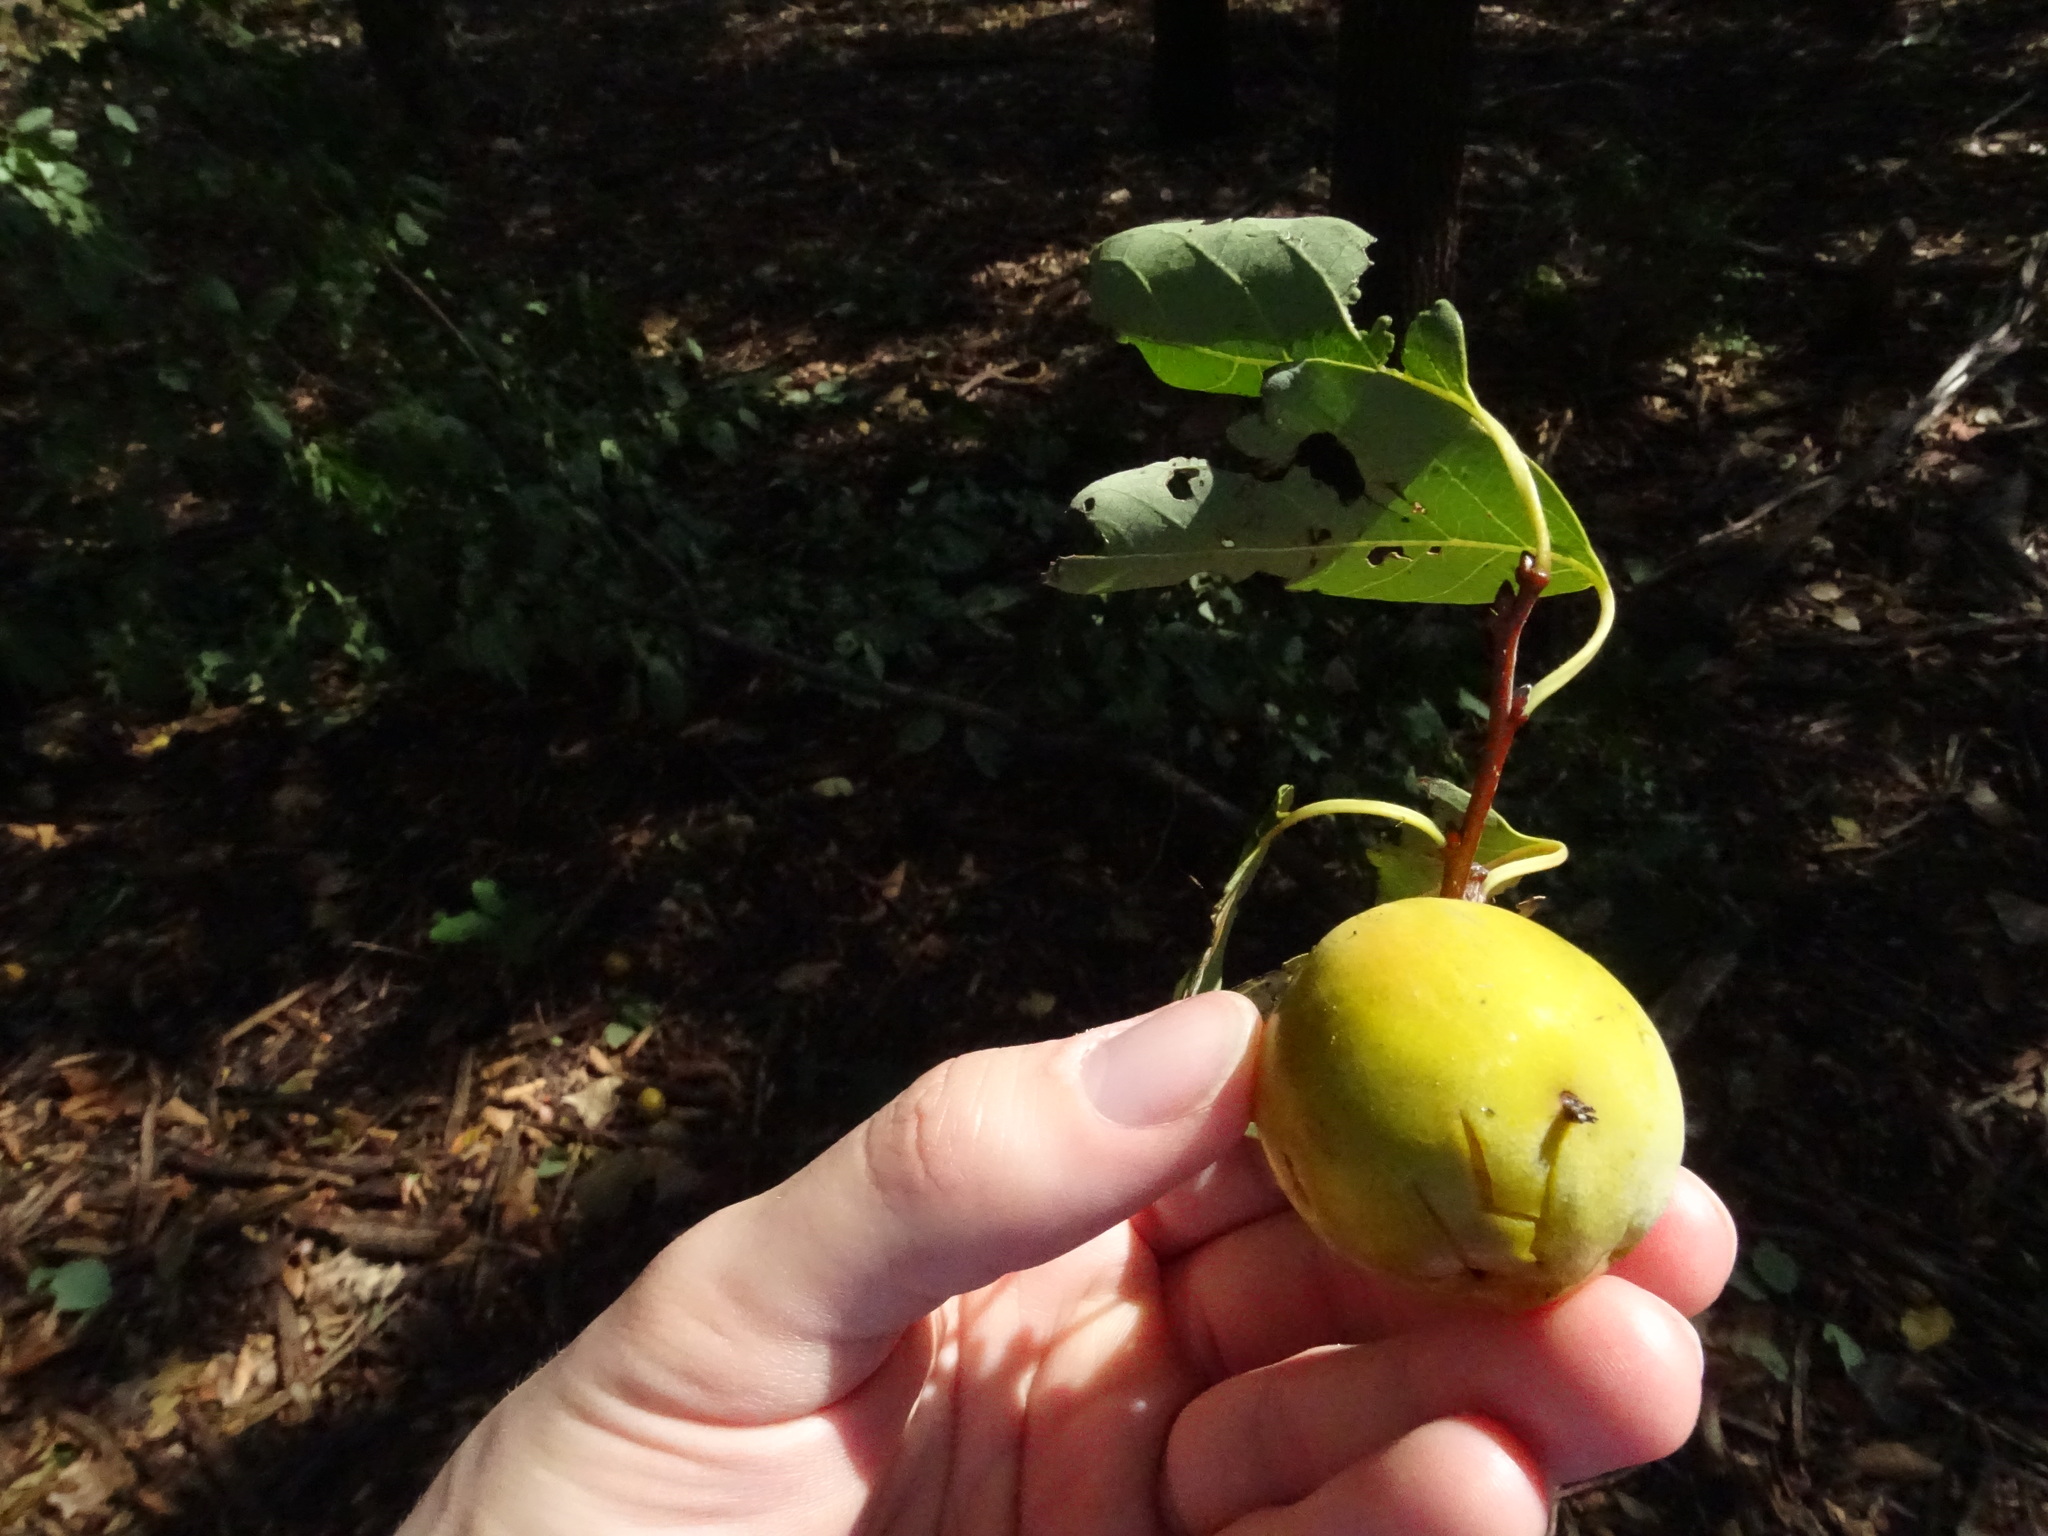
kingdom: Plantae
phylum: Tracheophyta
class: Magnoliopsida
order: Ericales
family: Ebenaceae
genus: Diospyros
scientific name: Diospyros virginiana
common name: Persimmon
